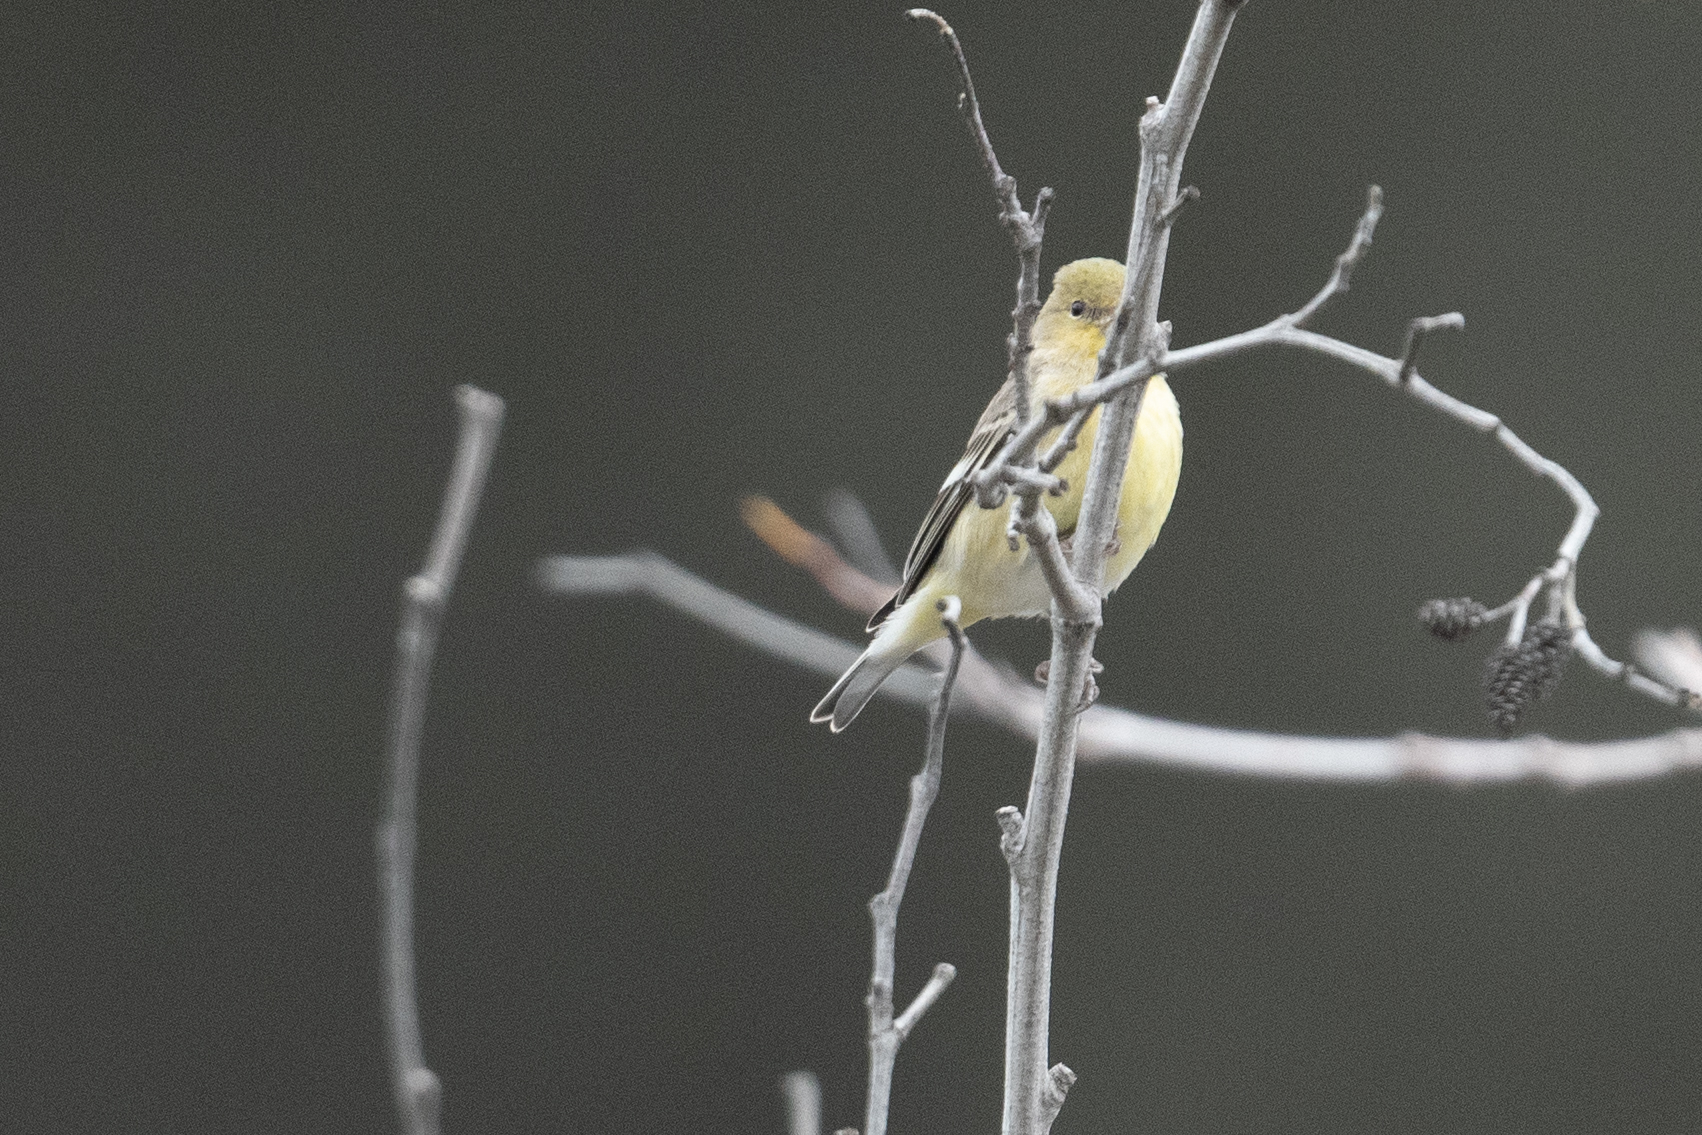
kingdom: Animalia
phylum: Chordata
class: Aves
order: Passeriformes
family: Fringillidae
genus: Spinus
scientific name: Spinus psaltria
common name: Lesser goldfinch
